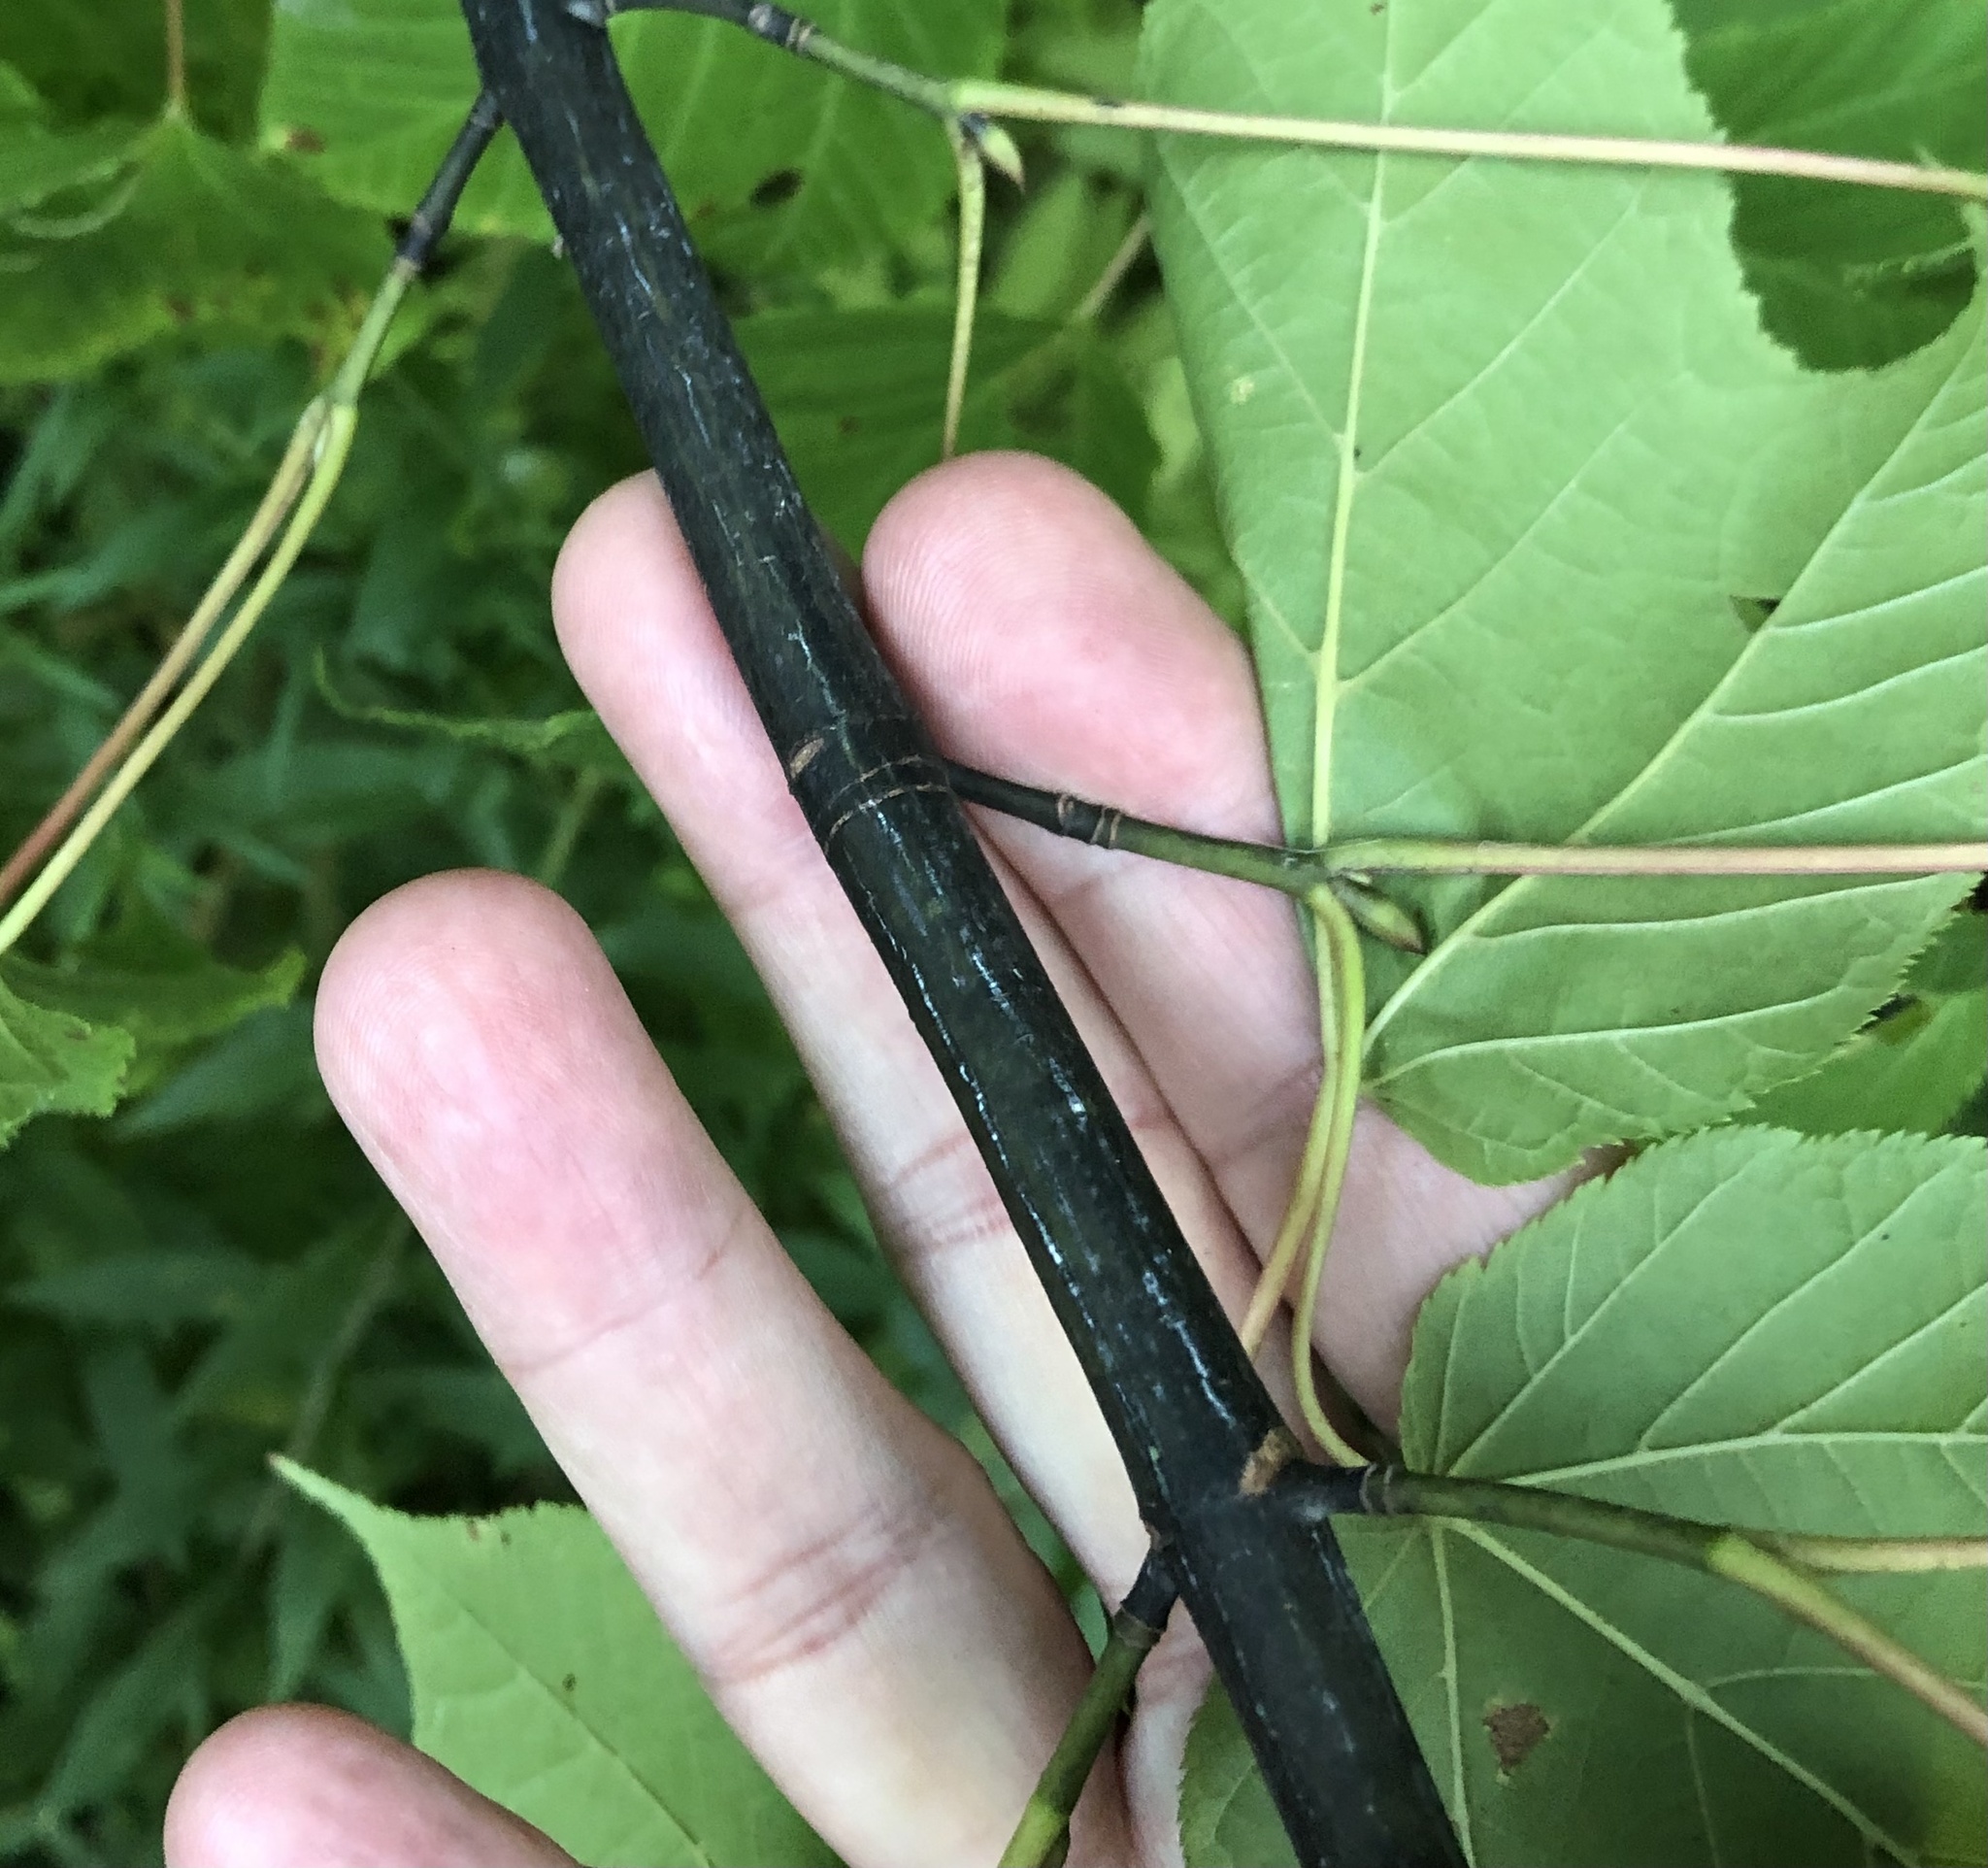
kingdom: Plantae
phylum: Tracheophyta
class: Magnoliopsida
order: Sapindales
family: Sapindaceae
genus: Acer
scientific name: Acer pensylvanicum
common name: Moosewood
